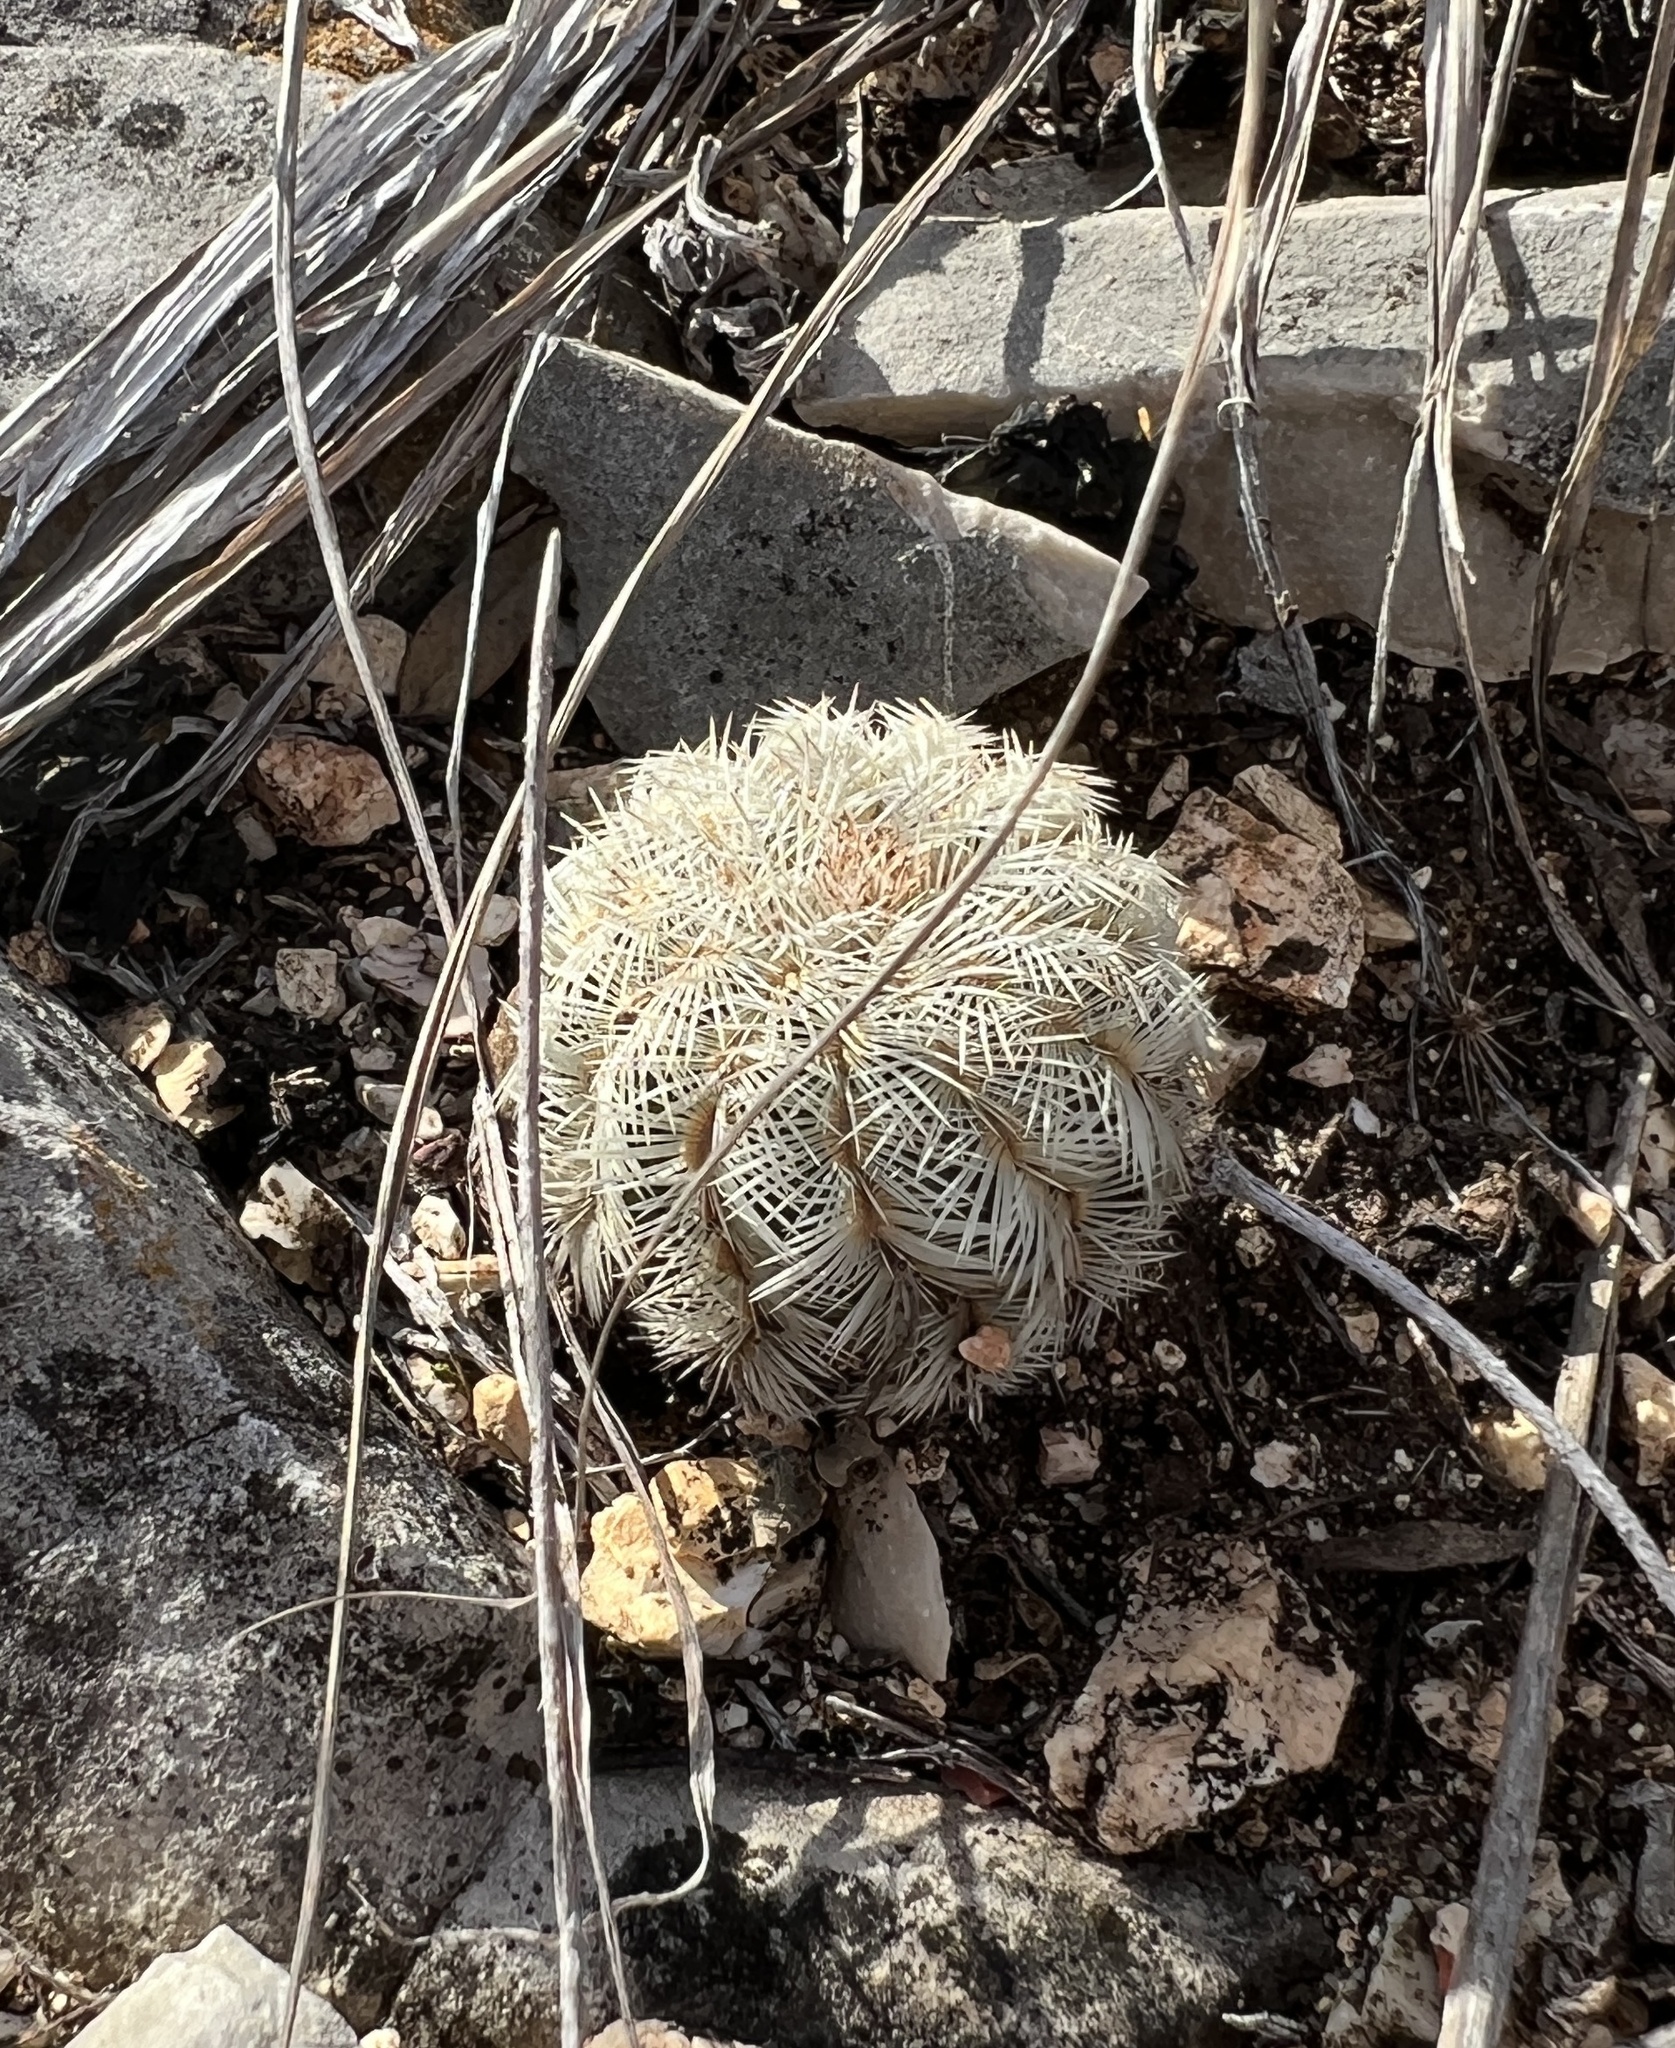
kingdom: Plantae
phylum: Tracheophyta
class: Magnoliopsida
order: Caryophyllales
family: Cactaceae
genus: Echinocereus
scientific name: Echinocereus reichenbachii
